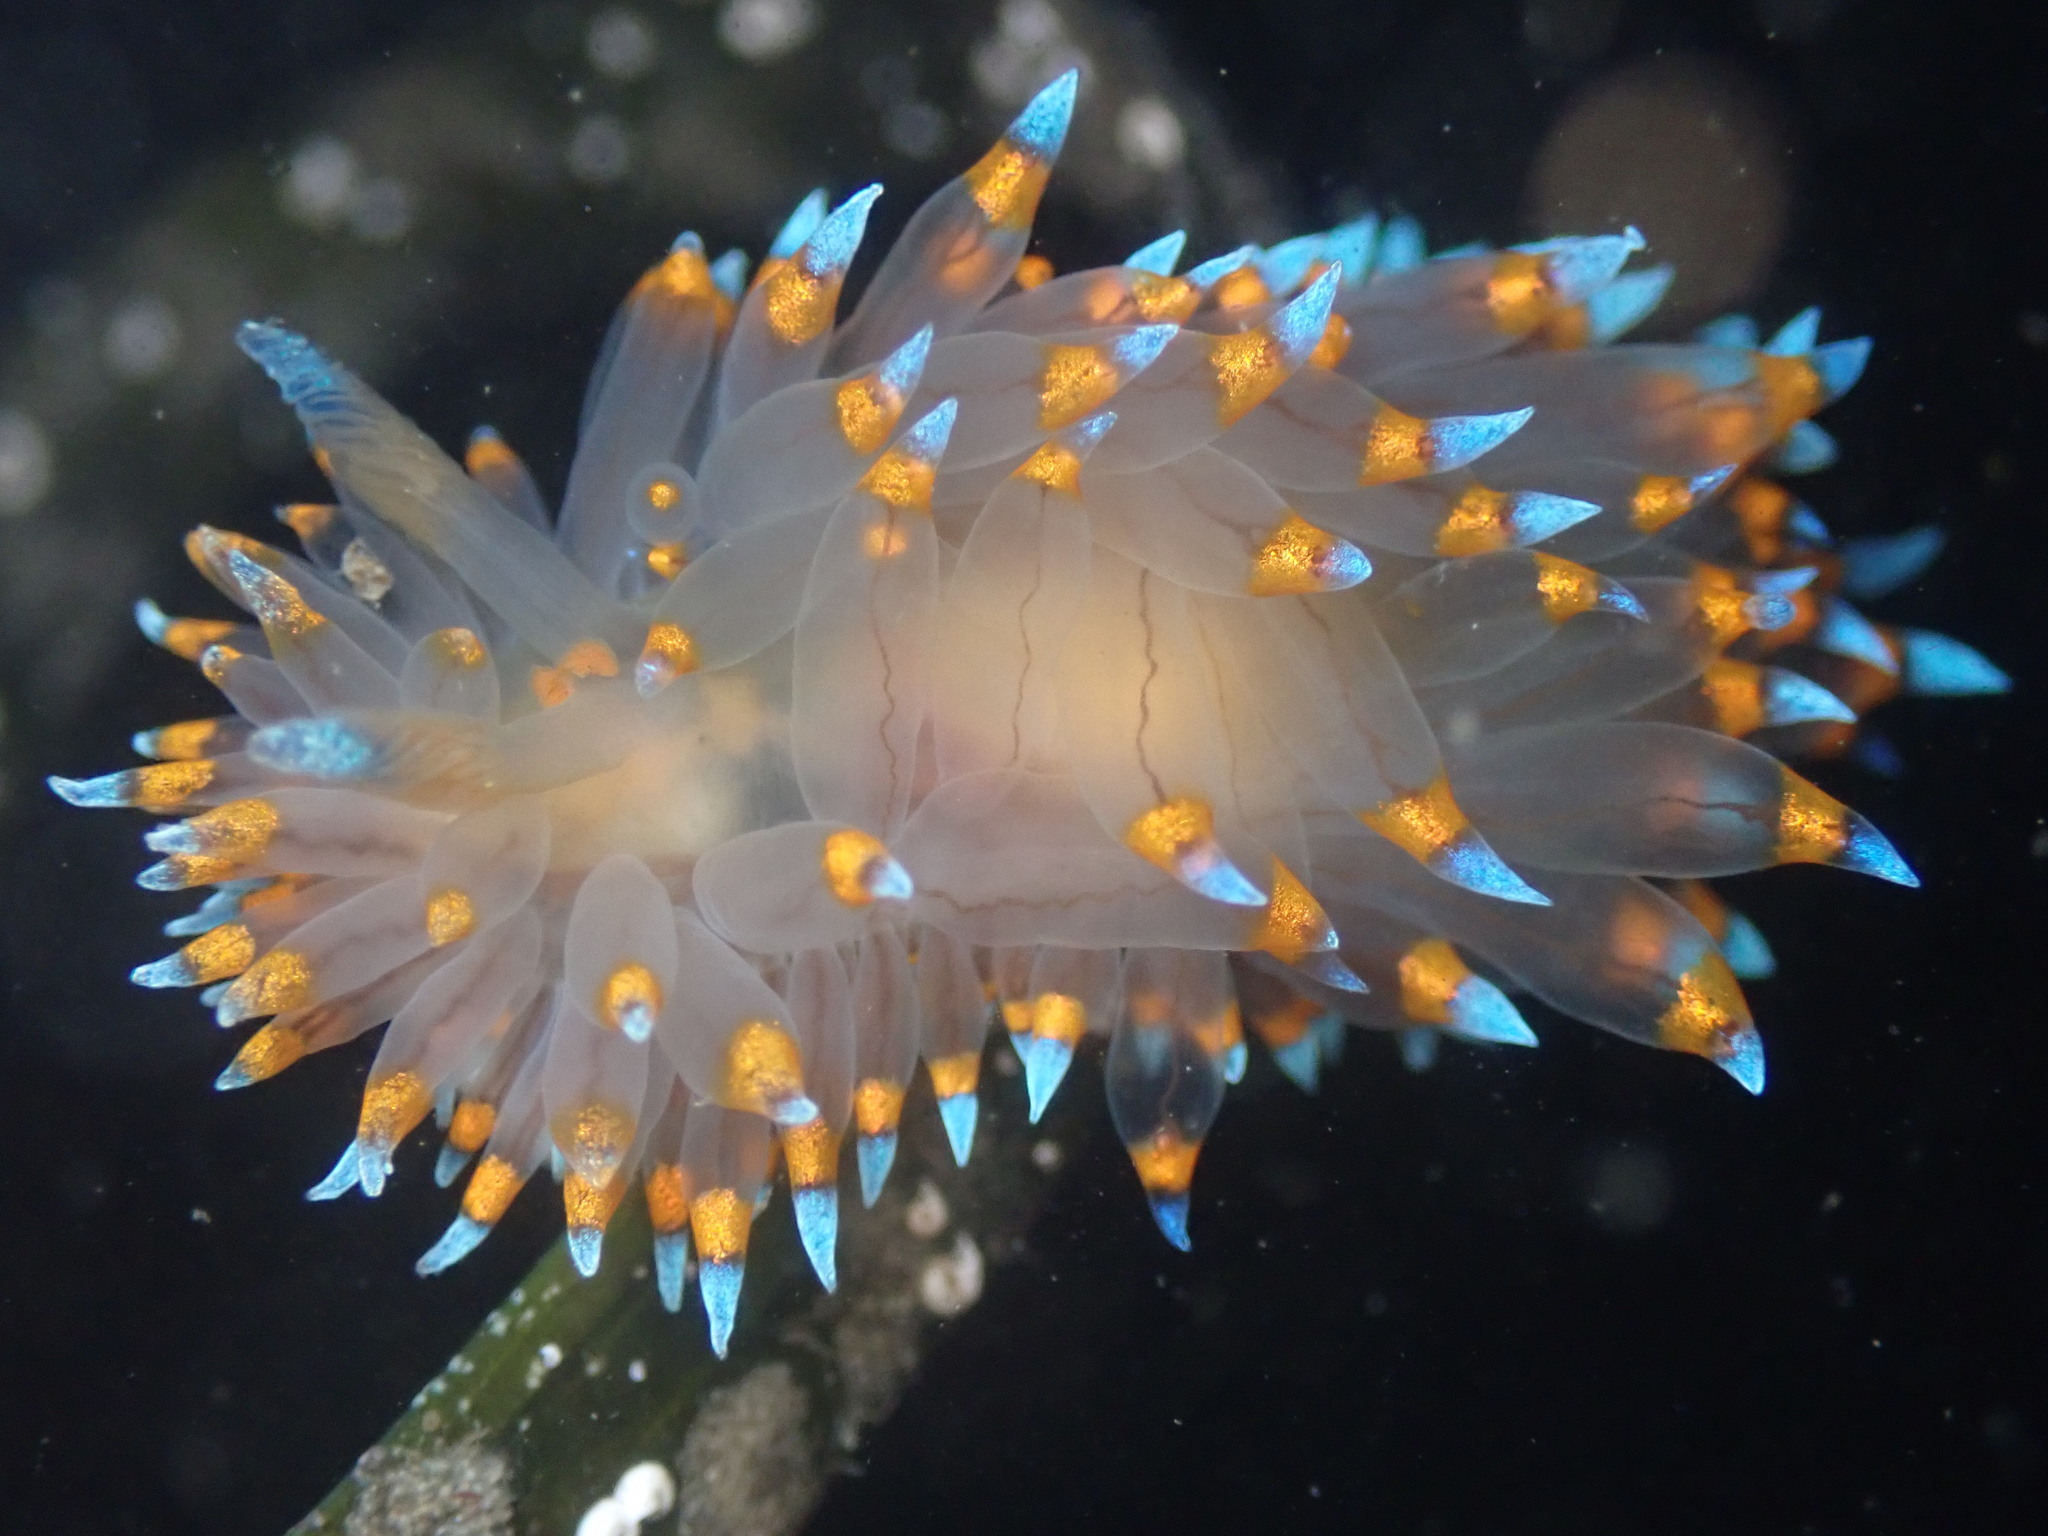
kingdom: Animalia
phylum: Mollusca
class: Gastropoda
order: Nudibranchia
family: Janolidae
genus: Antiopella
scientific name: Antiopella barbarensis
